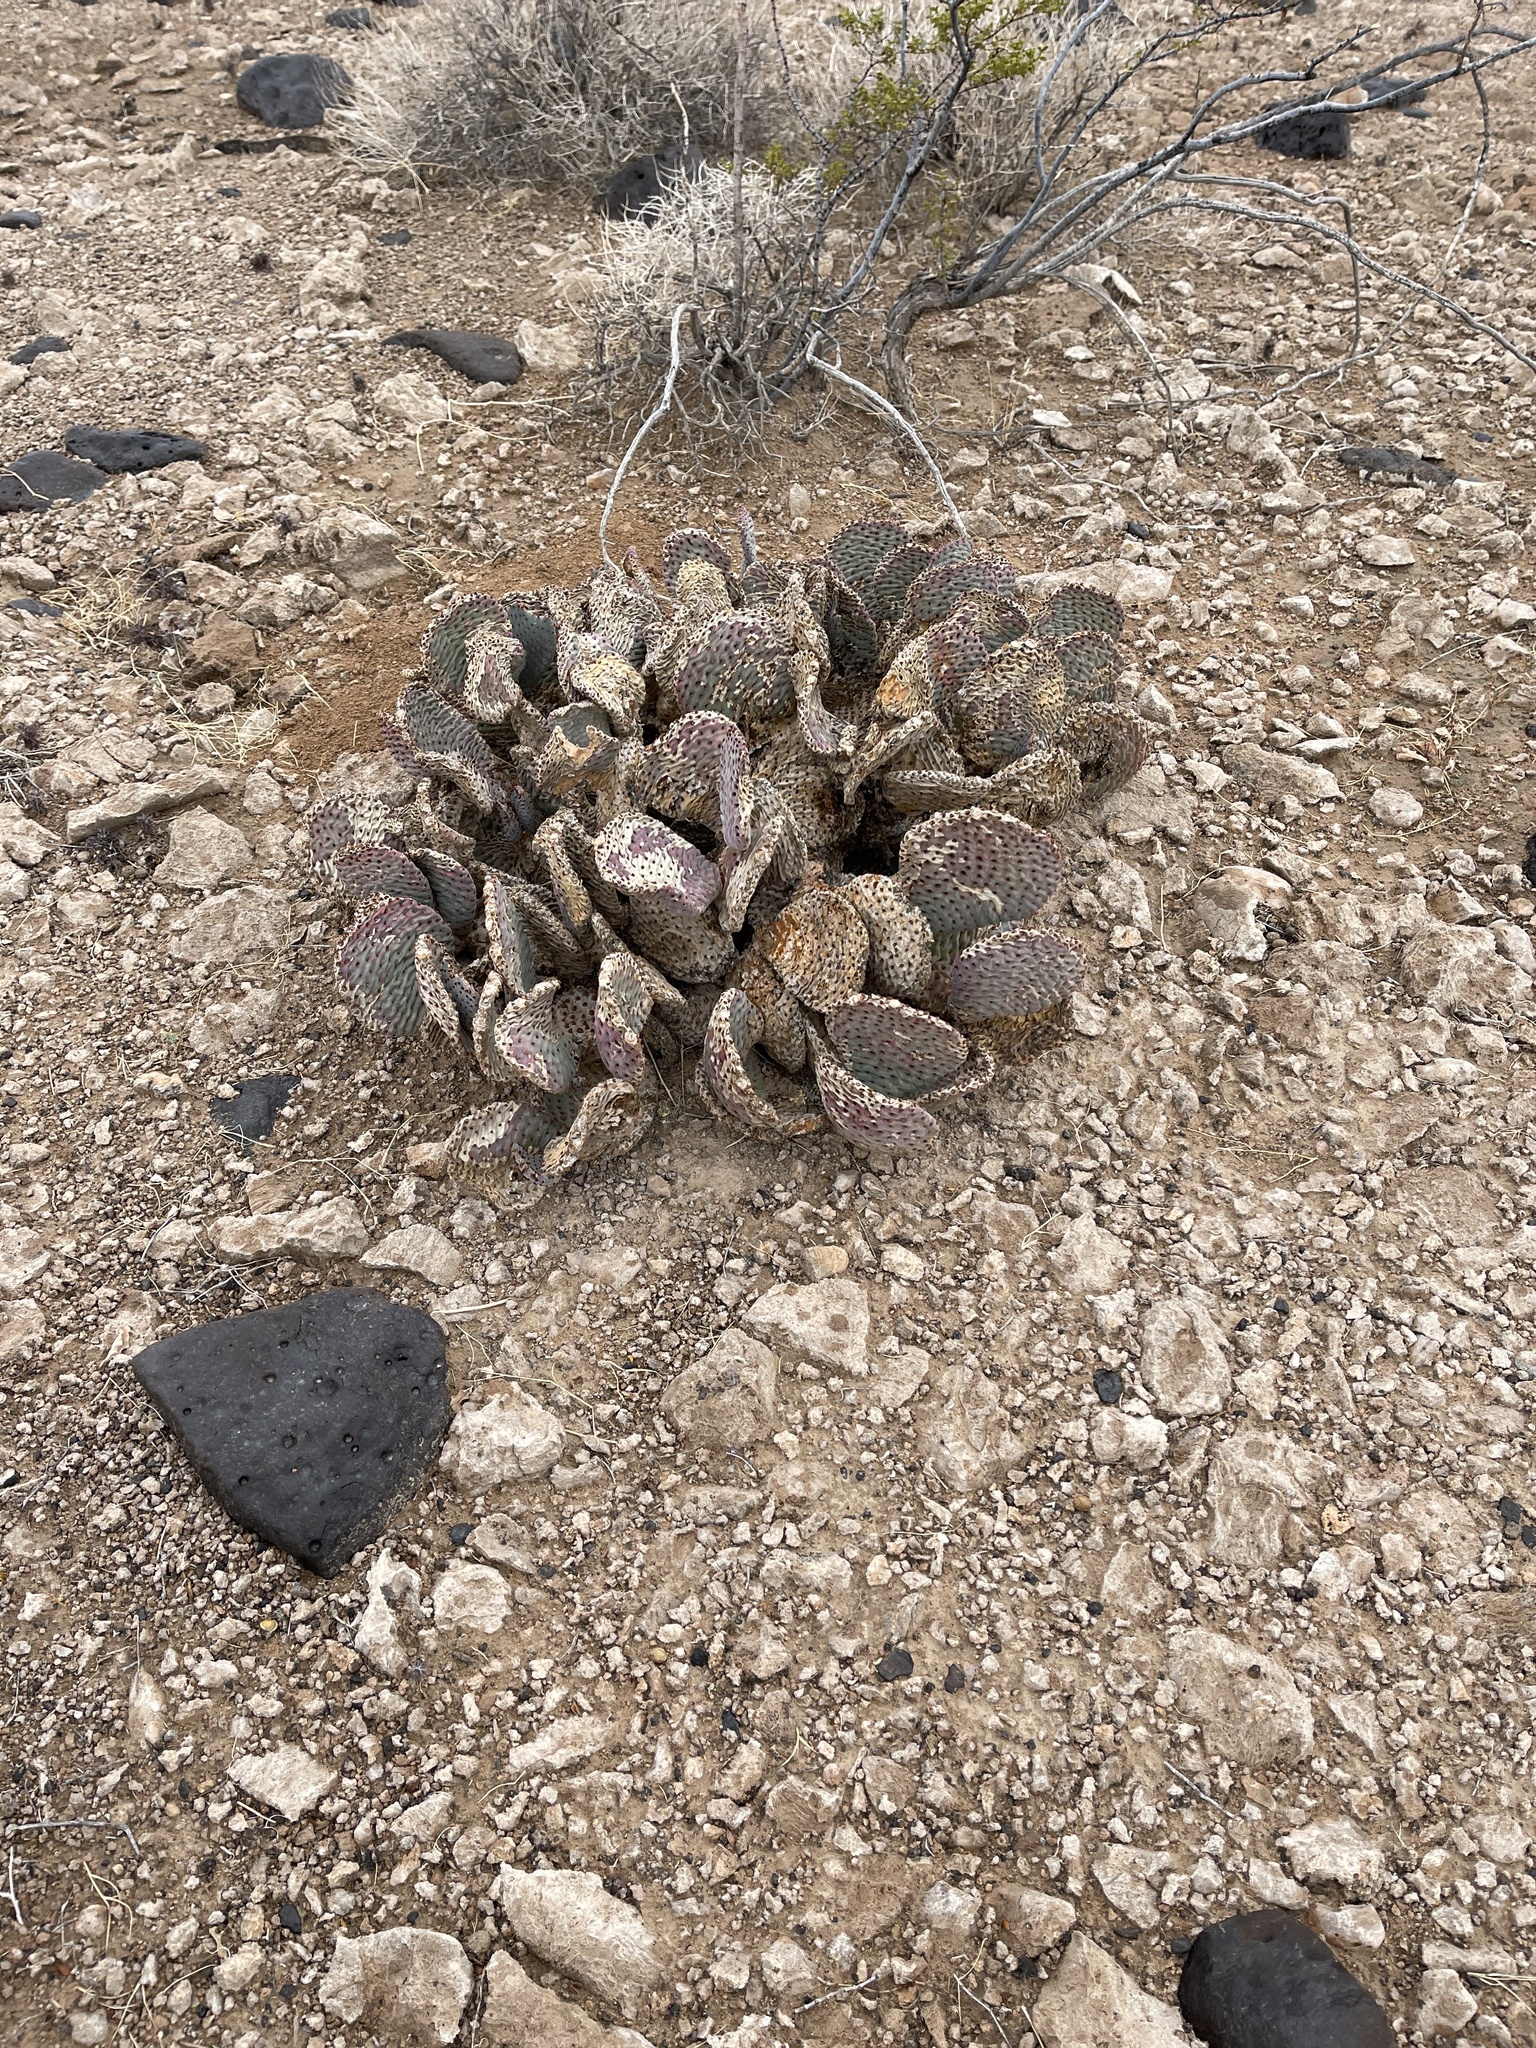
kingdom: Plantae
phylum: Tracheophyta
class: Magnoliopsida
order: Caryophyllales
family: Cactaceae
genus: Opuntia
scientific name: Opuntia basilaris
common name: Beavertail prickly-pear
